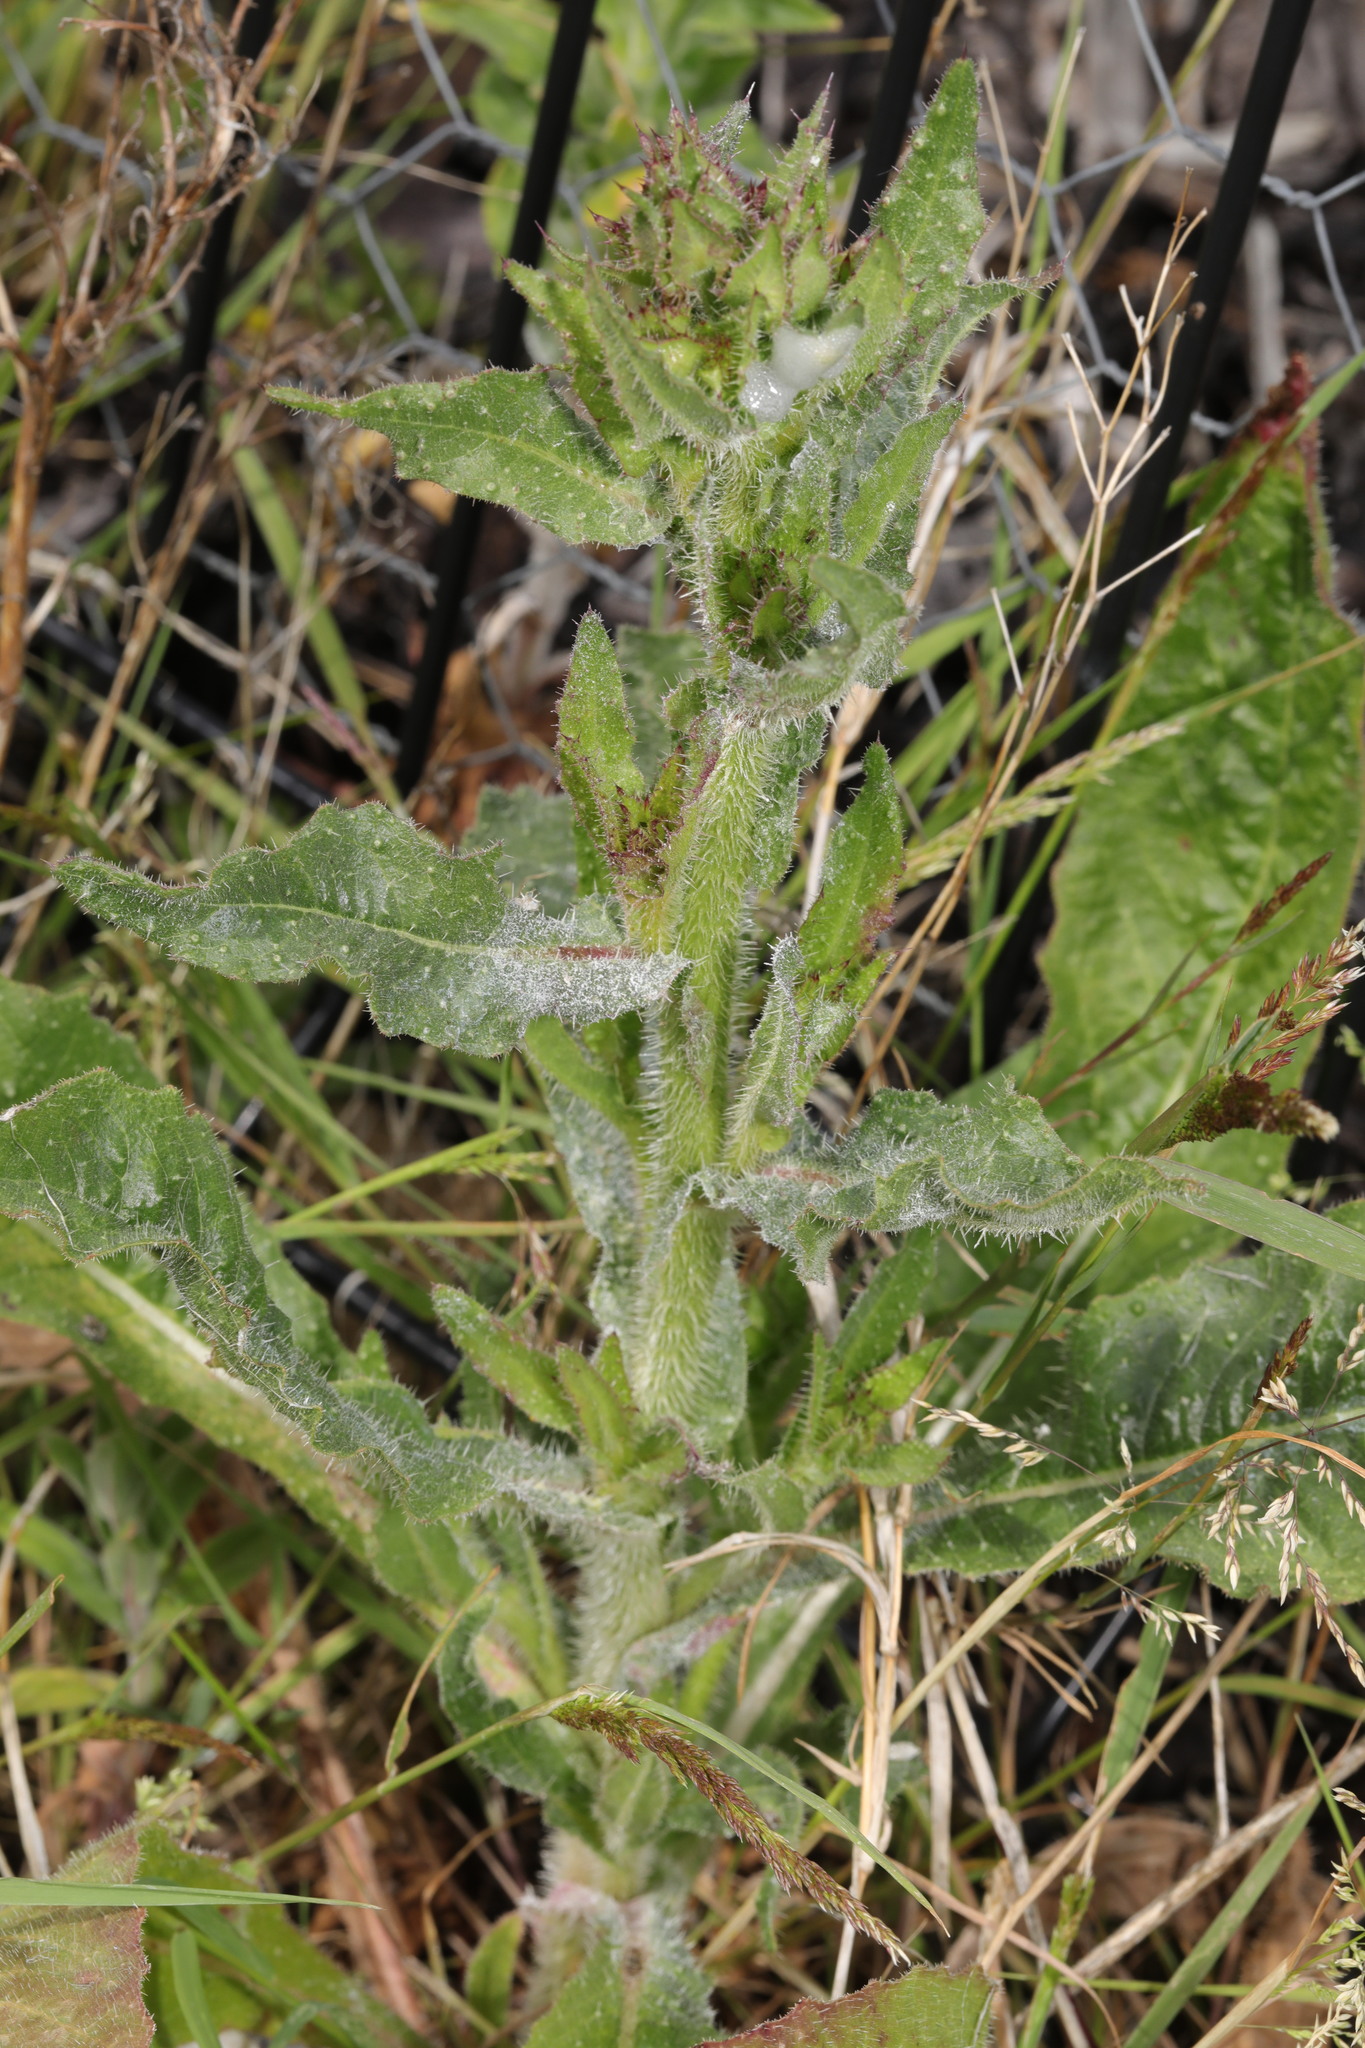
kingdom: Fungi
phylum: Ascomycota
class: Leotiomycetes
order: Helotiales
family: Erysiphaceae
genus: Golovinomyces
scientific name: Golovinomyces
